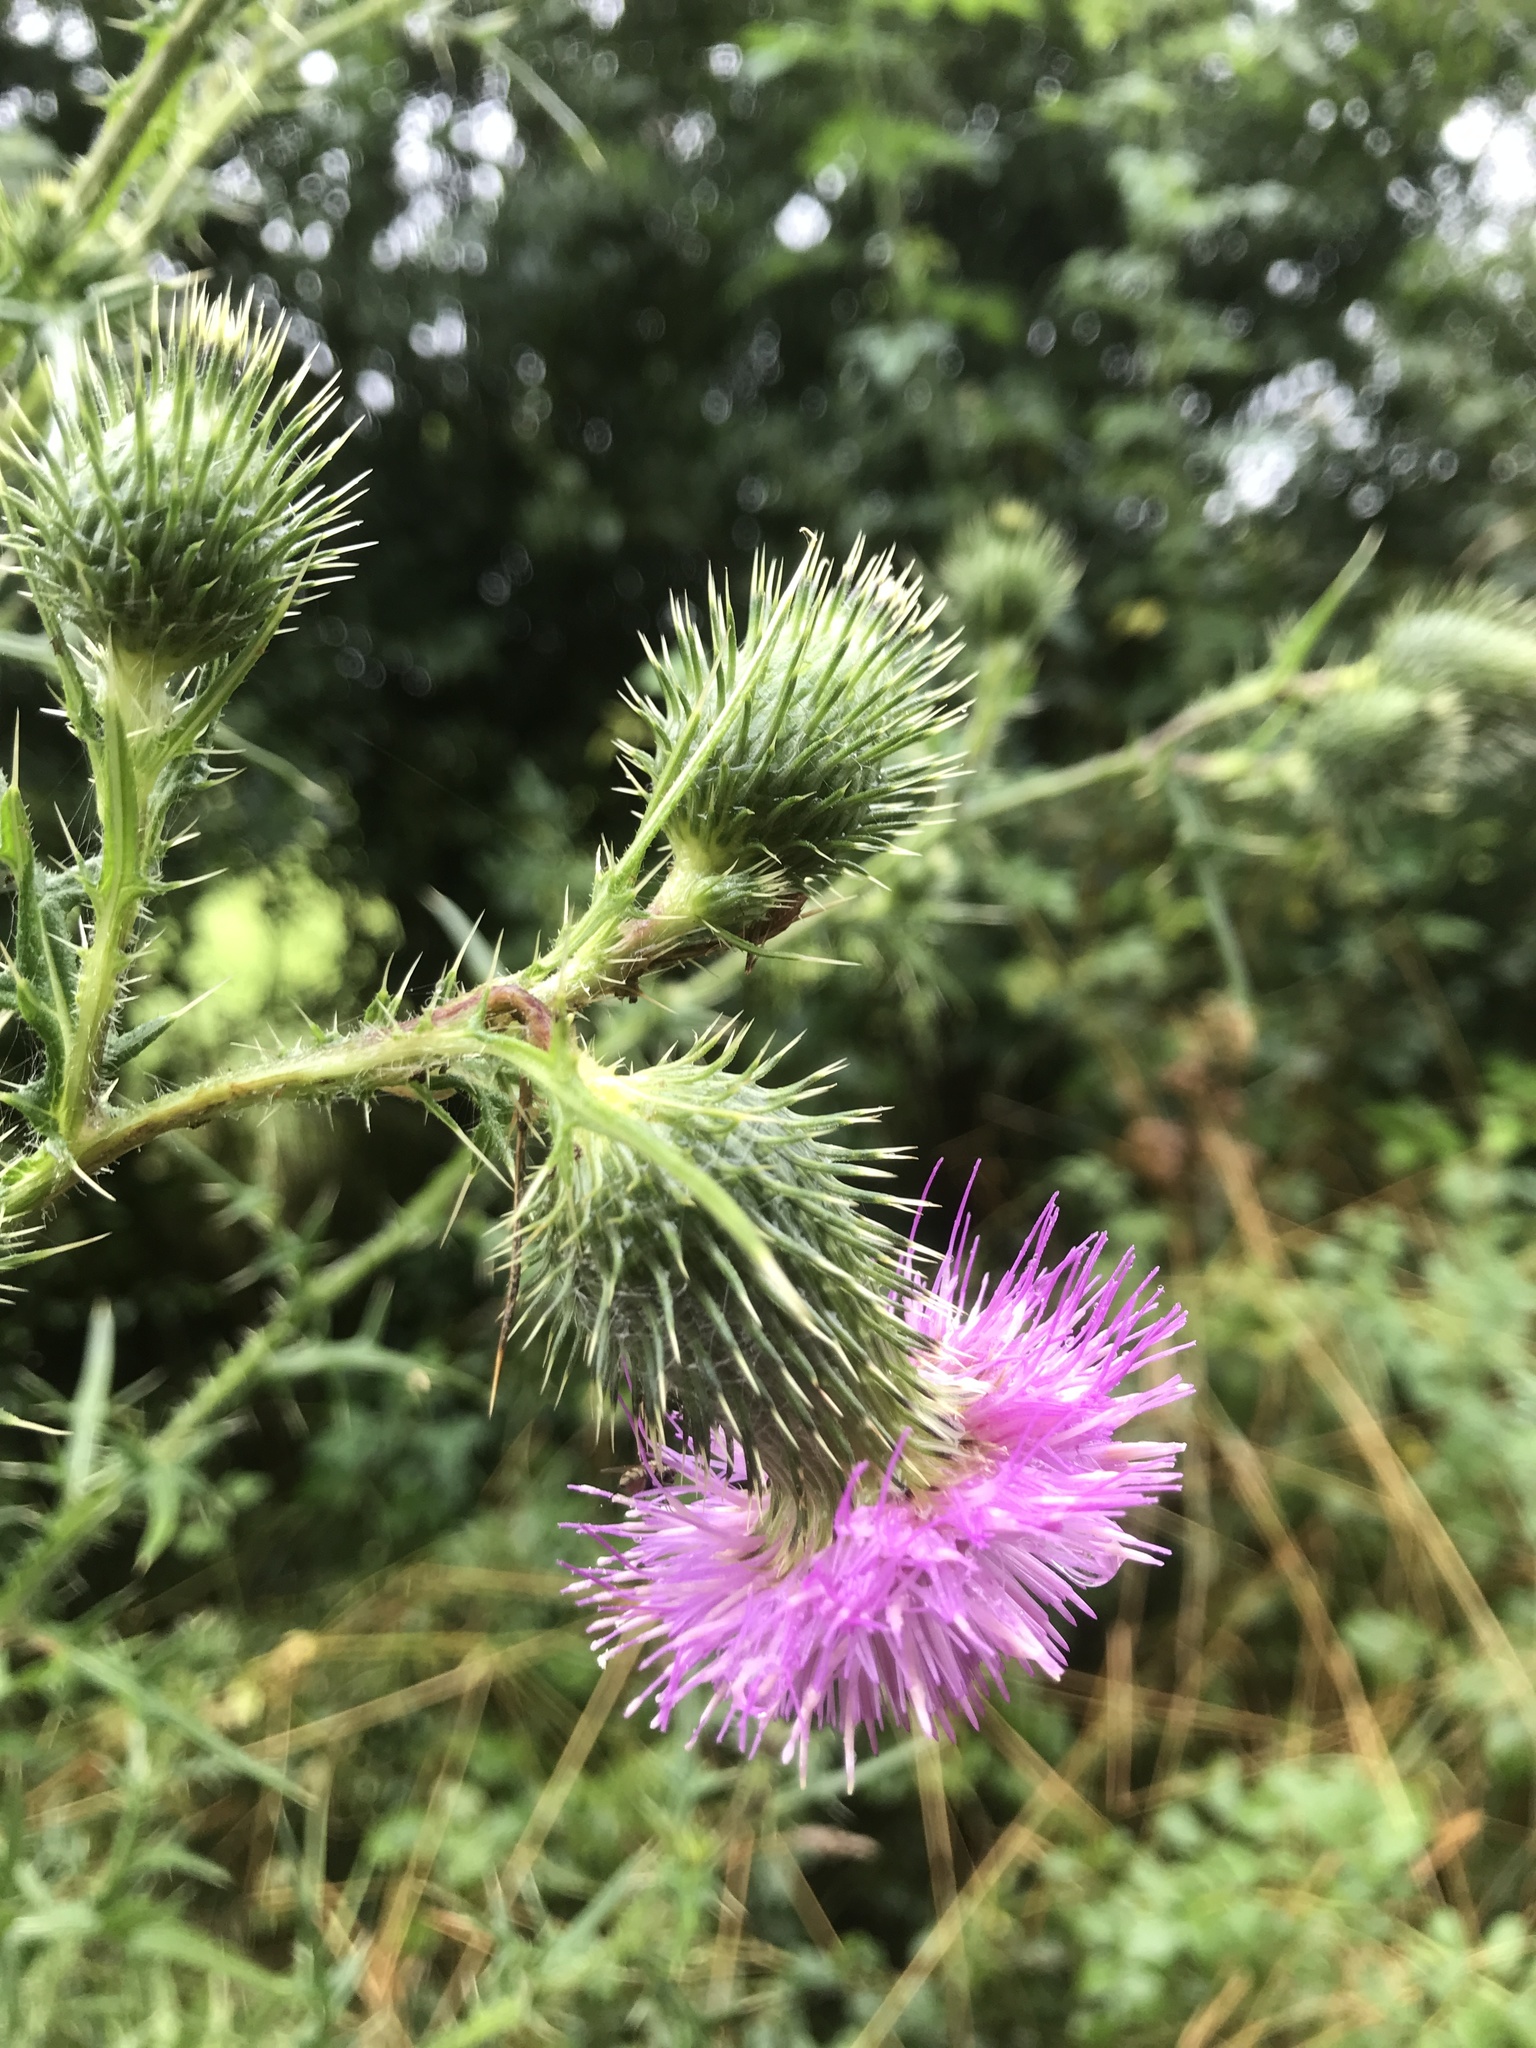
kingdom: Plantae
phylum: Tracheophyta
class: Magnoliopsida
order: Asterales
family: Asteraceae
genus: Cirsium
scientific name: Cirsium vulgare
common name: Bull thistle
